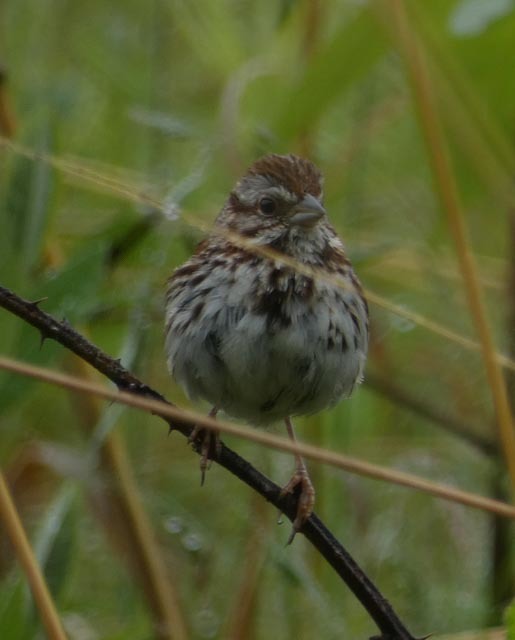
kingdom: Animalia
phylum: Chordata
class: Aves
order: Passeriformes
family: Passerellidae
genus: Melospiza
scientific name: Melospiza melodia
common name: Song sparrow
